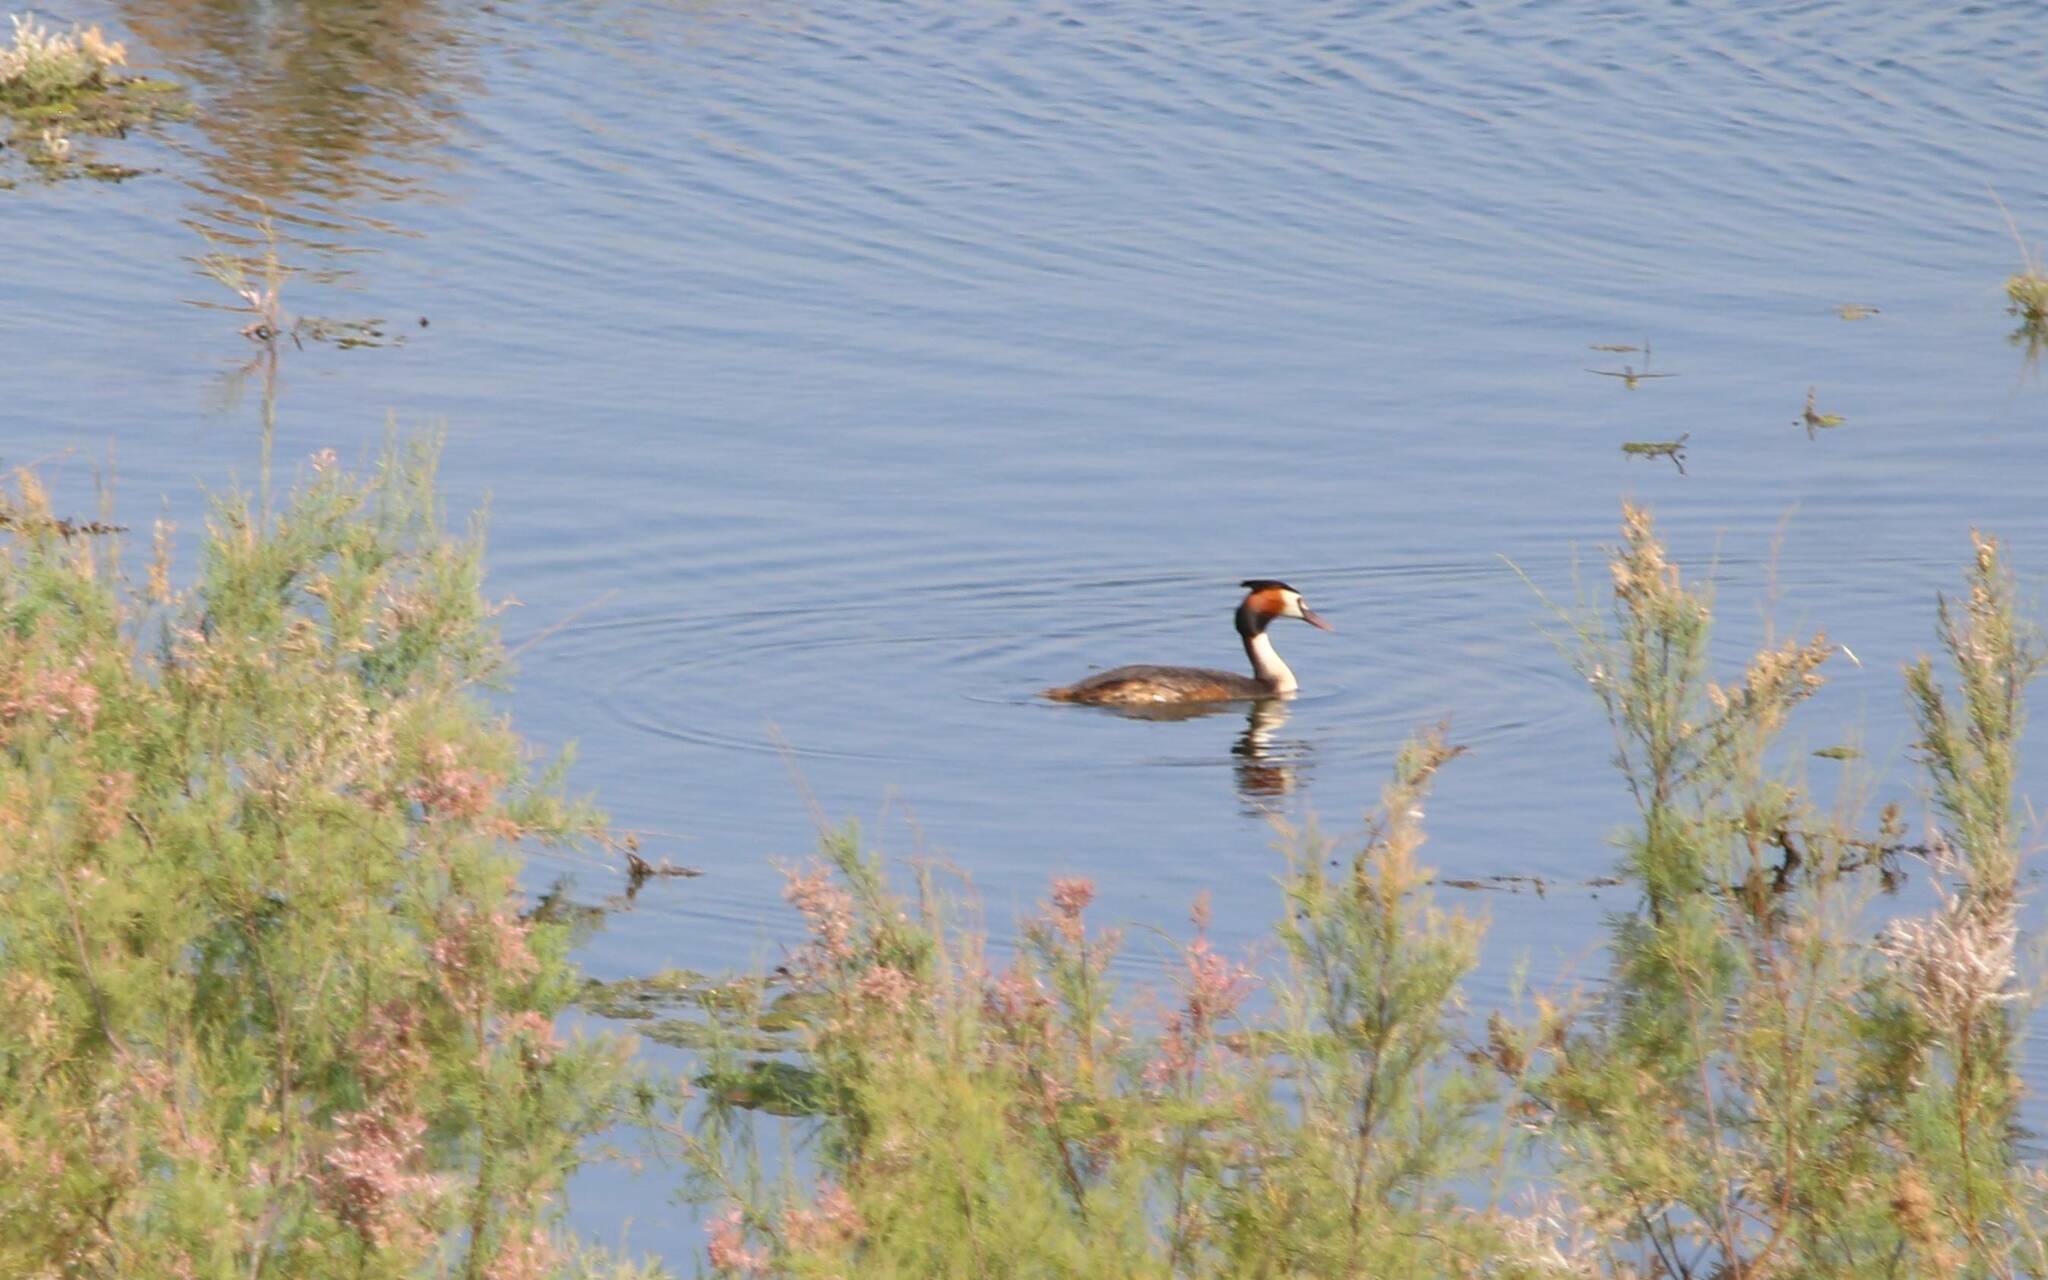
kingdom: Animalia
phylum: Chordata
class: Aves
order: Podicipediformes
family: Podicipedidae
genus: Podiceps
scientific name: Podiceps cristatus
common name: Great crested grebe
